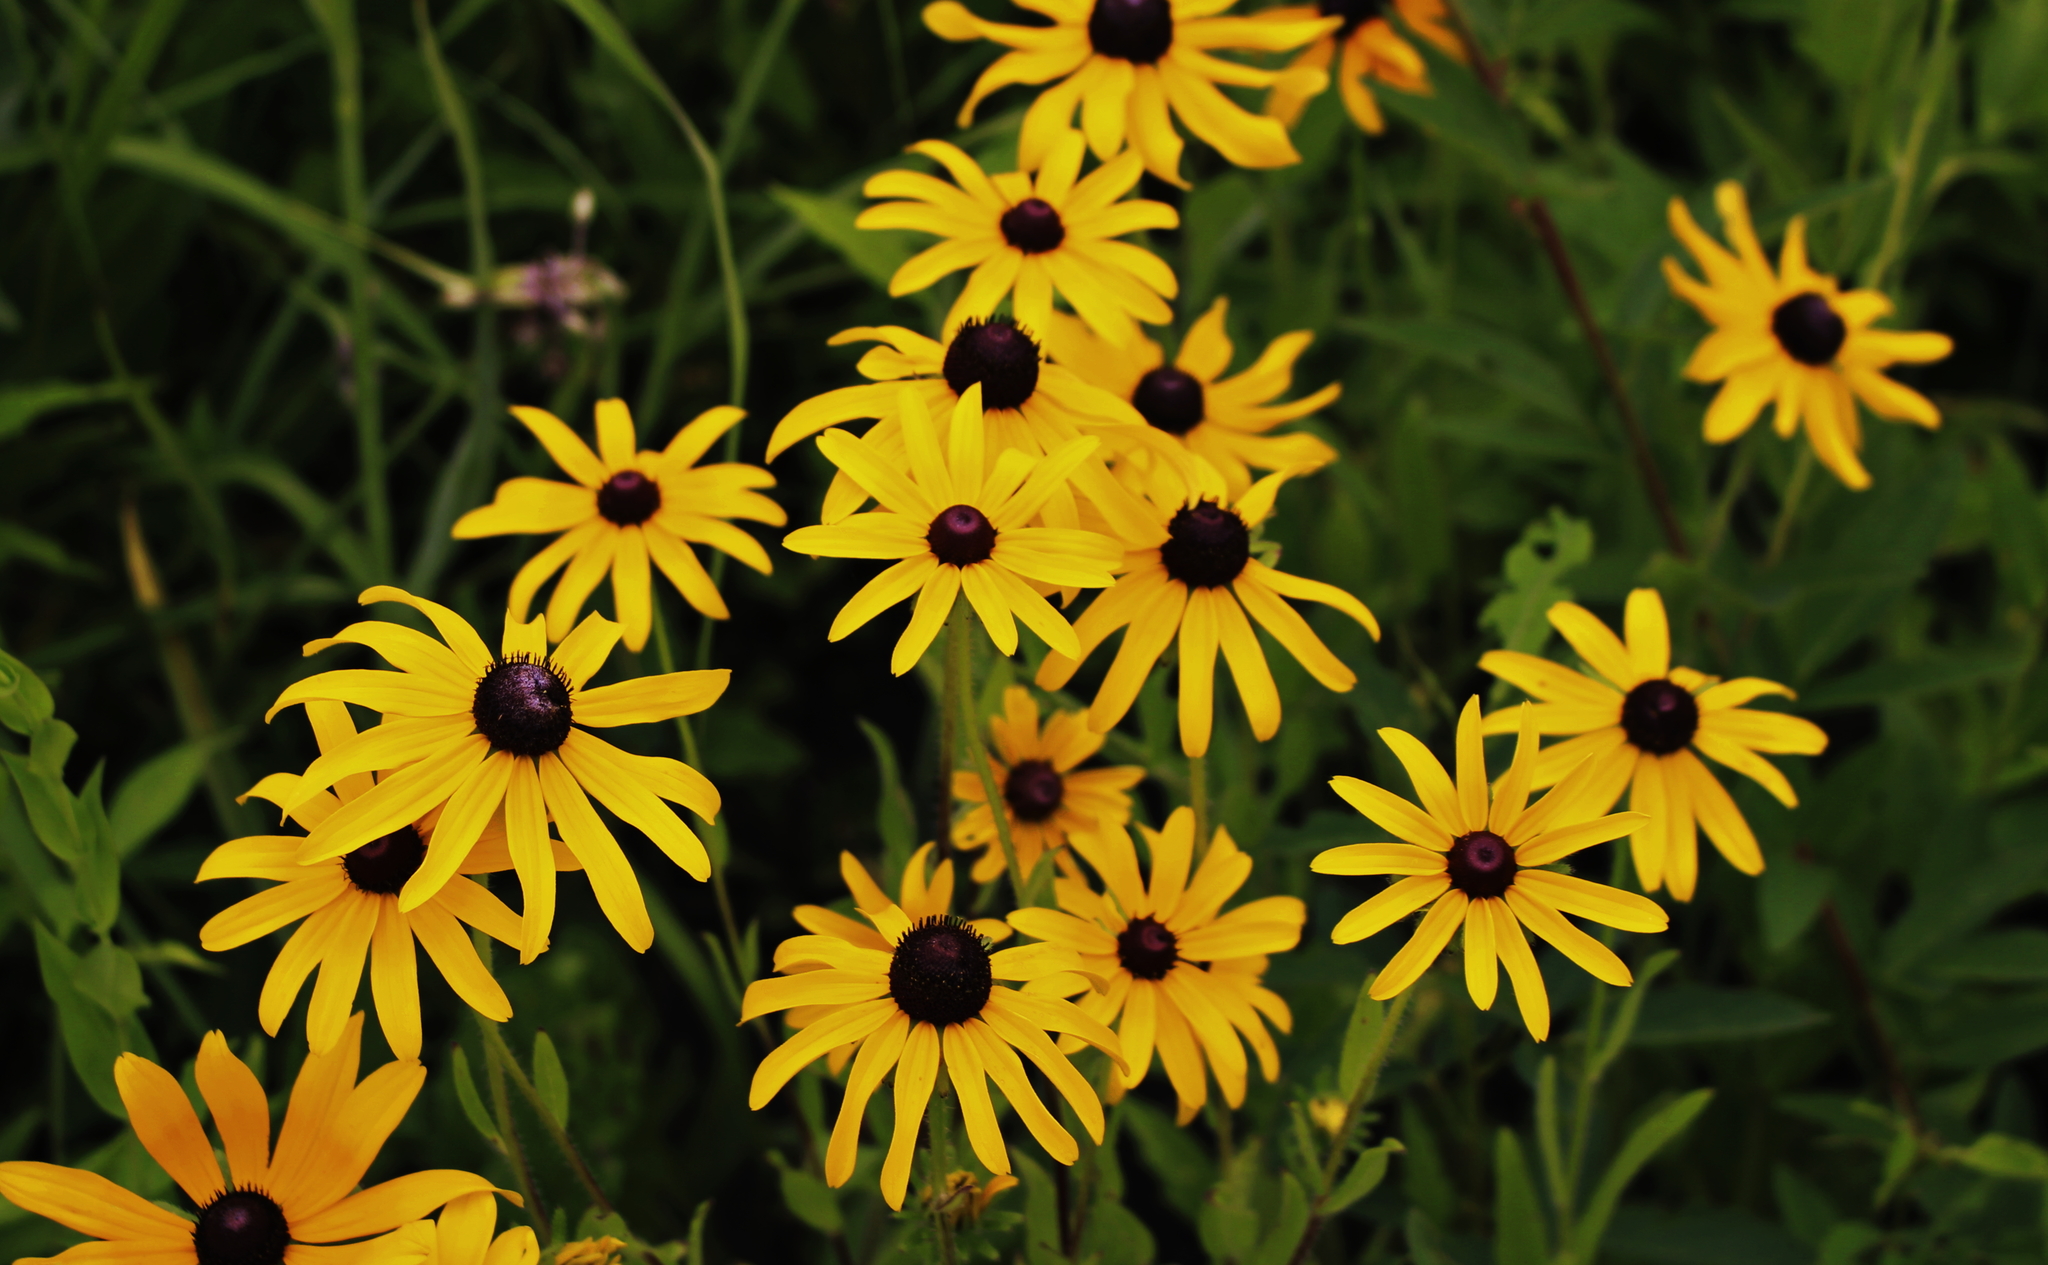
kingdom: Plantae
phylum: Tracheophyta
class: Magnoliopsida
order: Asterales
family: Asteraceae
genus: Rudbeckia
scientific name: Rudbeckia hirta
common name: Black-eyed-susan
